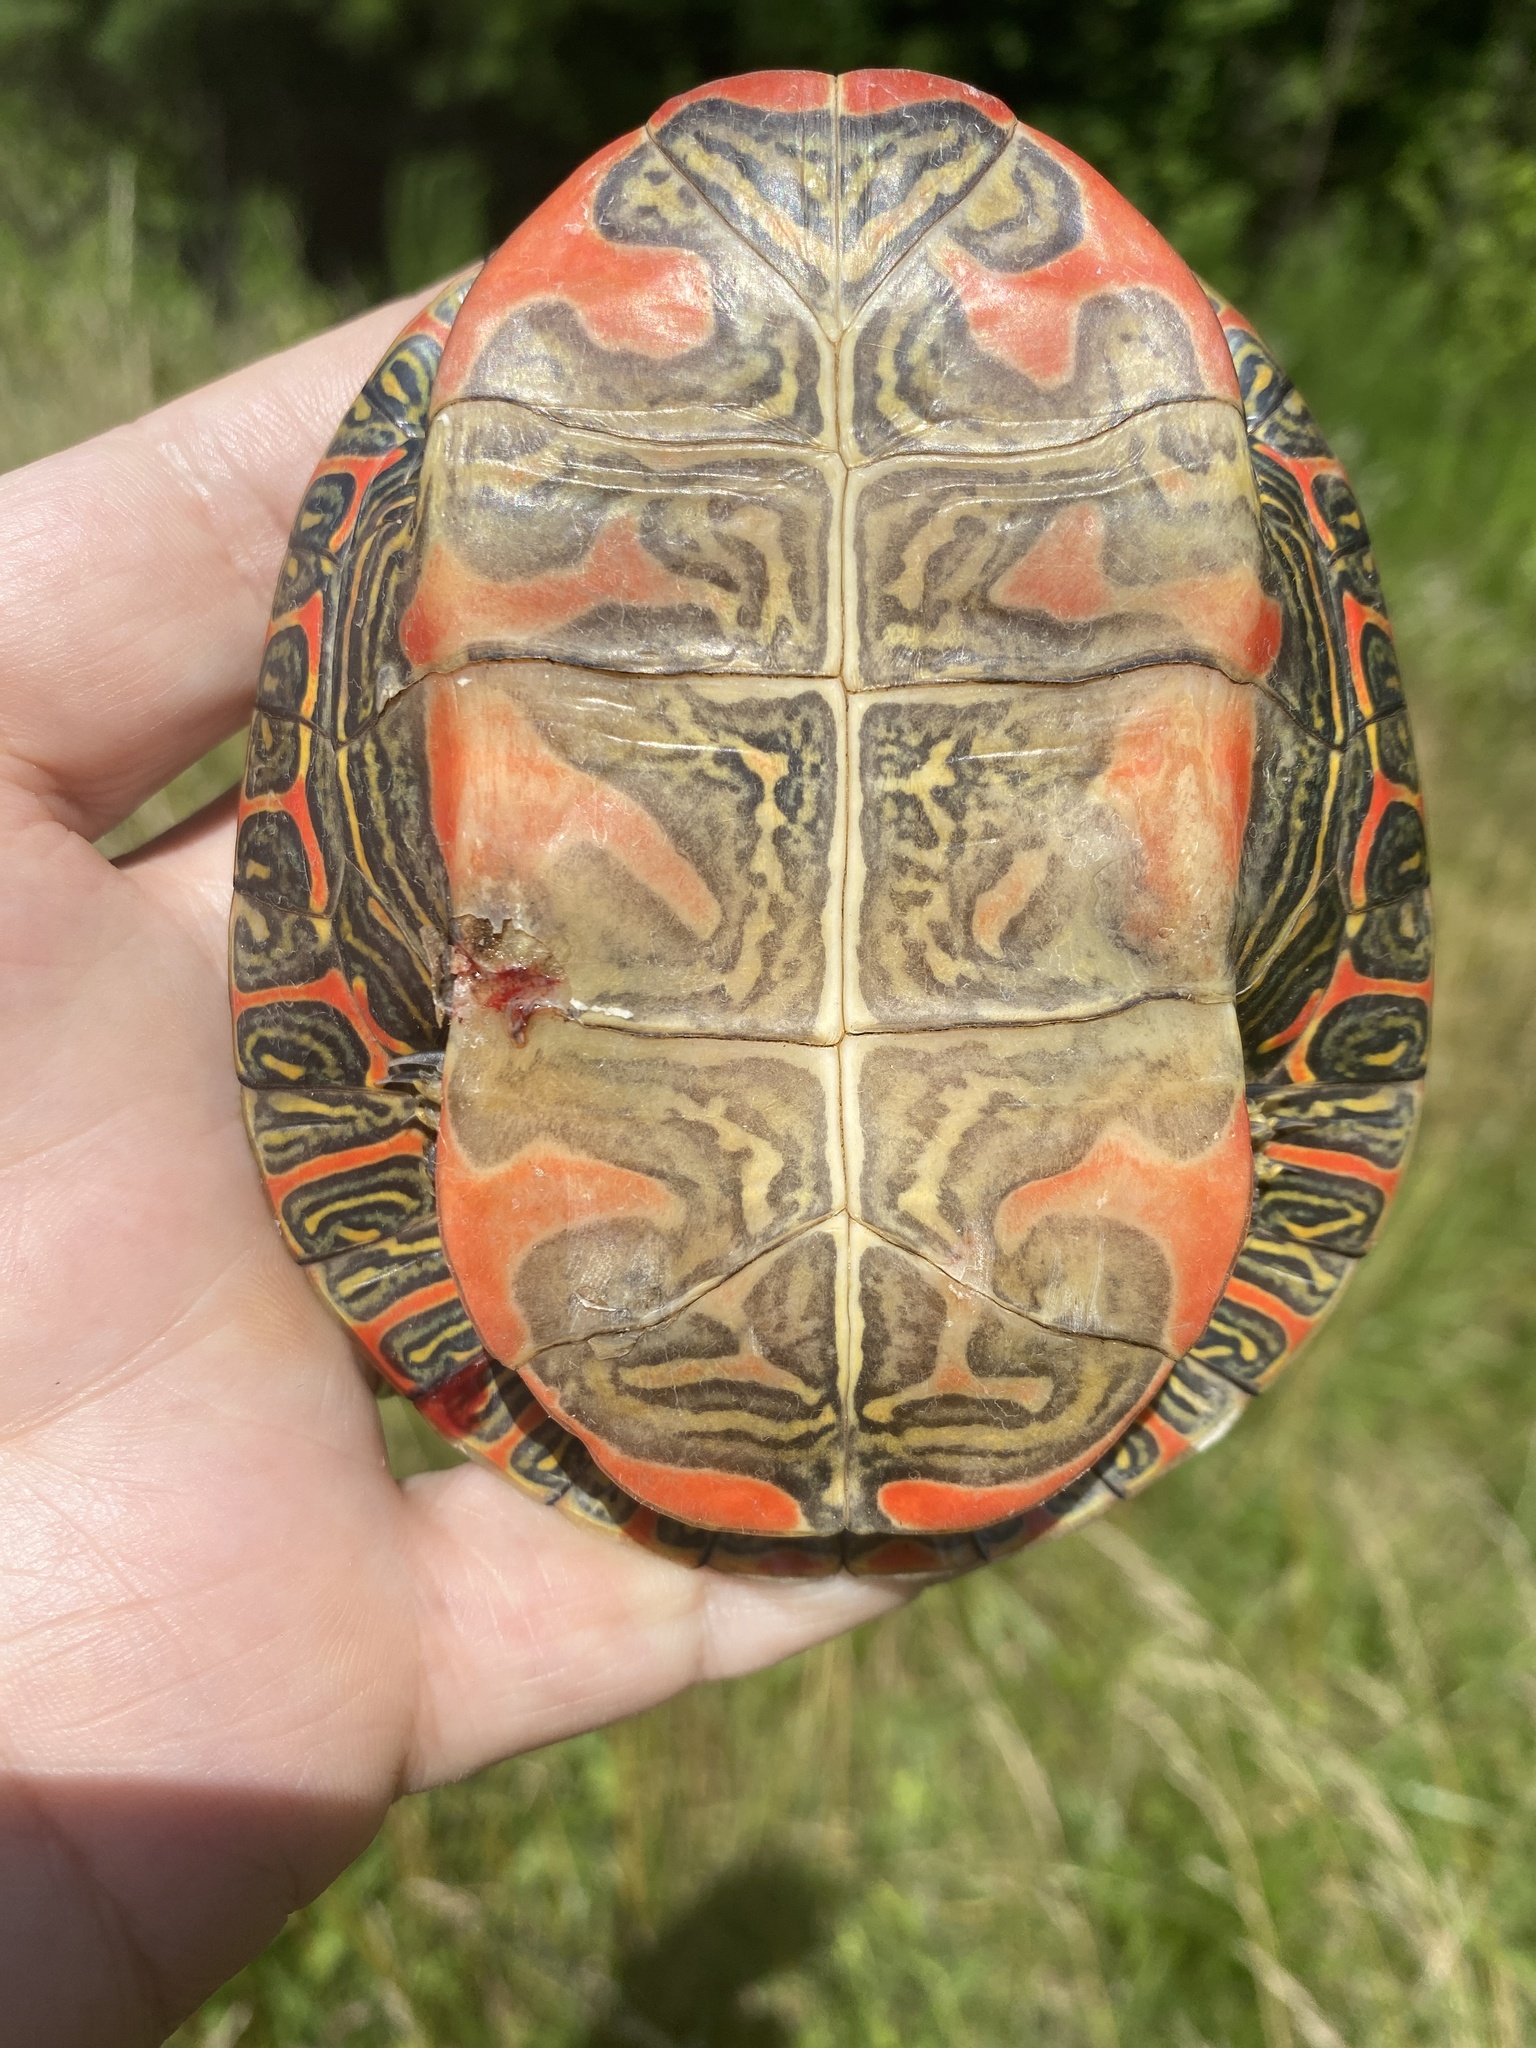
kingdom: Animalia
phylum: Chordata
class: Testudines
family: Emydidae
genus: Chrysemys
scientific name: Chrysemys picta
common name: Painted turtle
